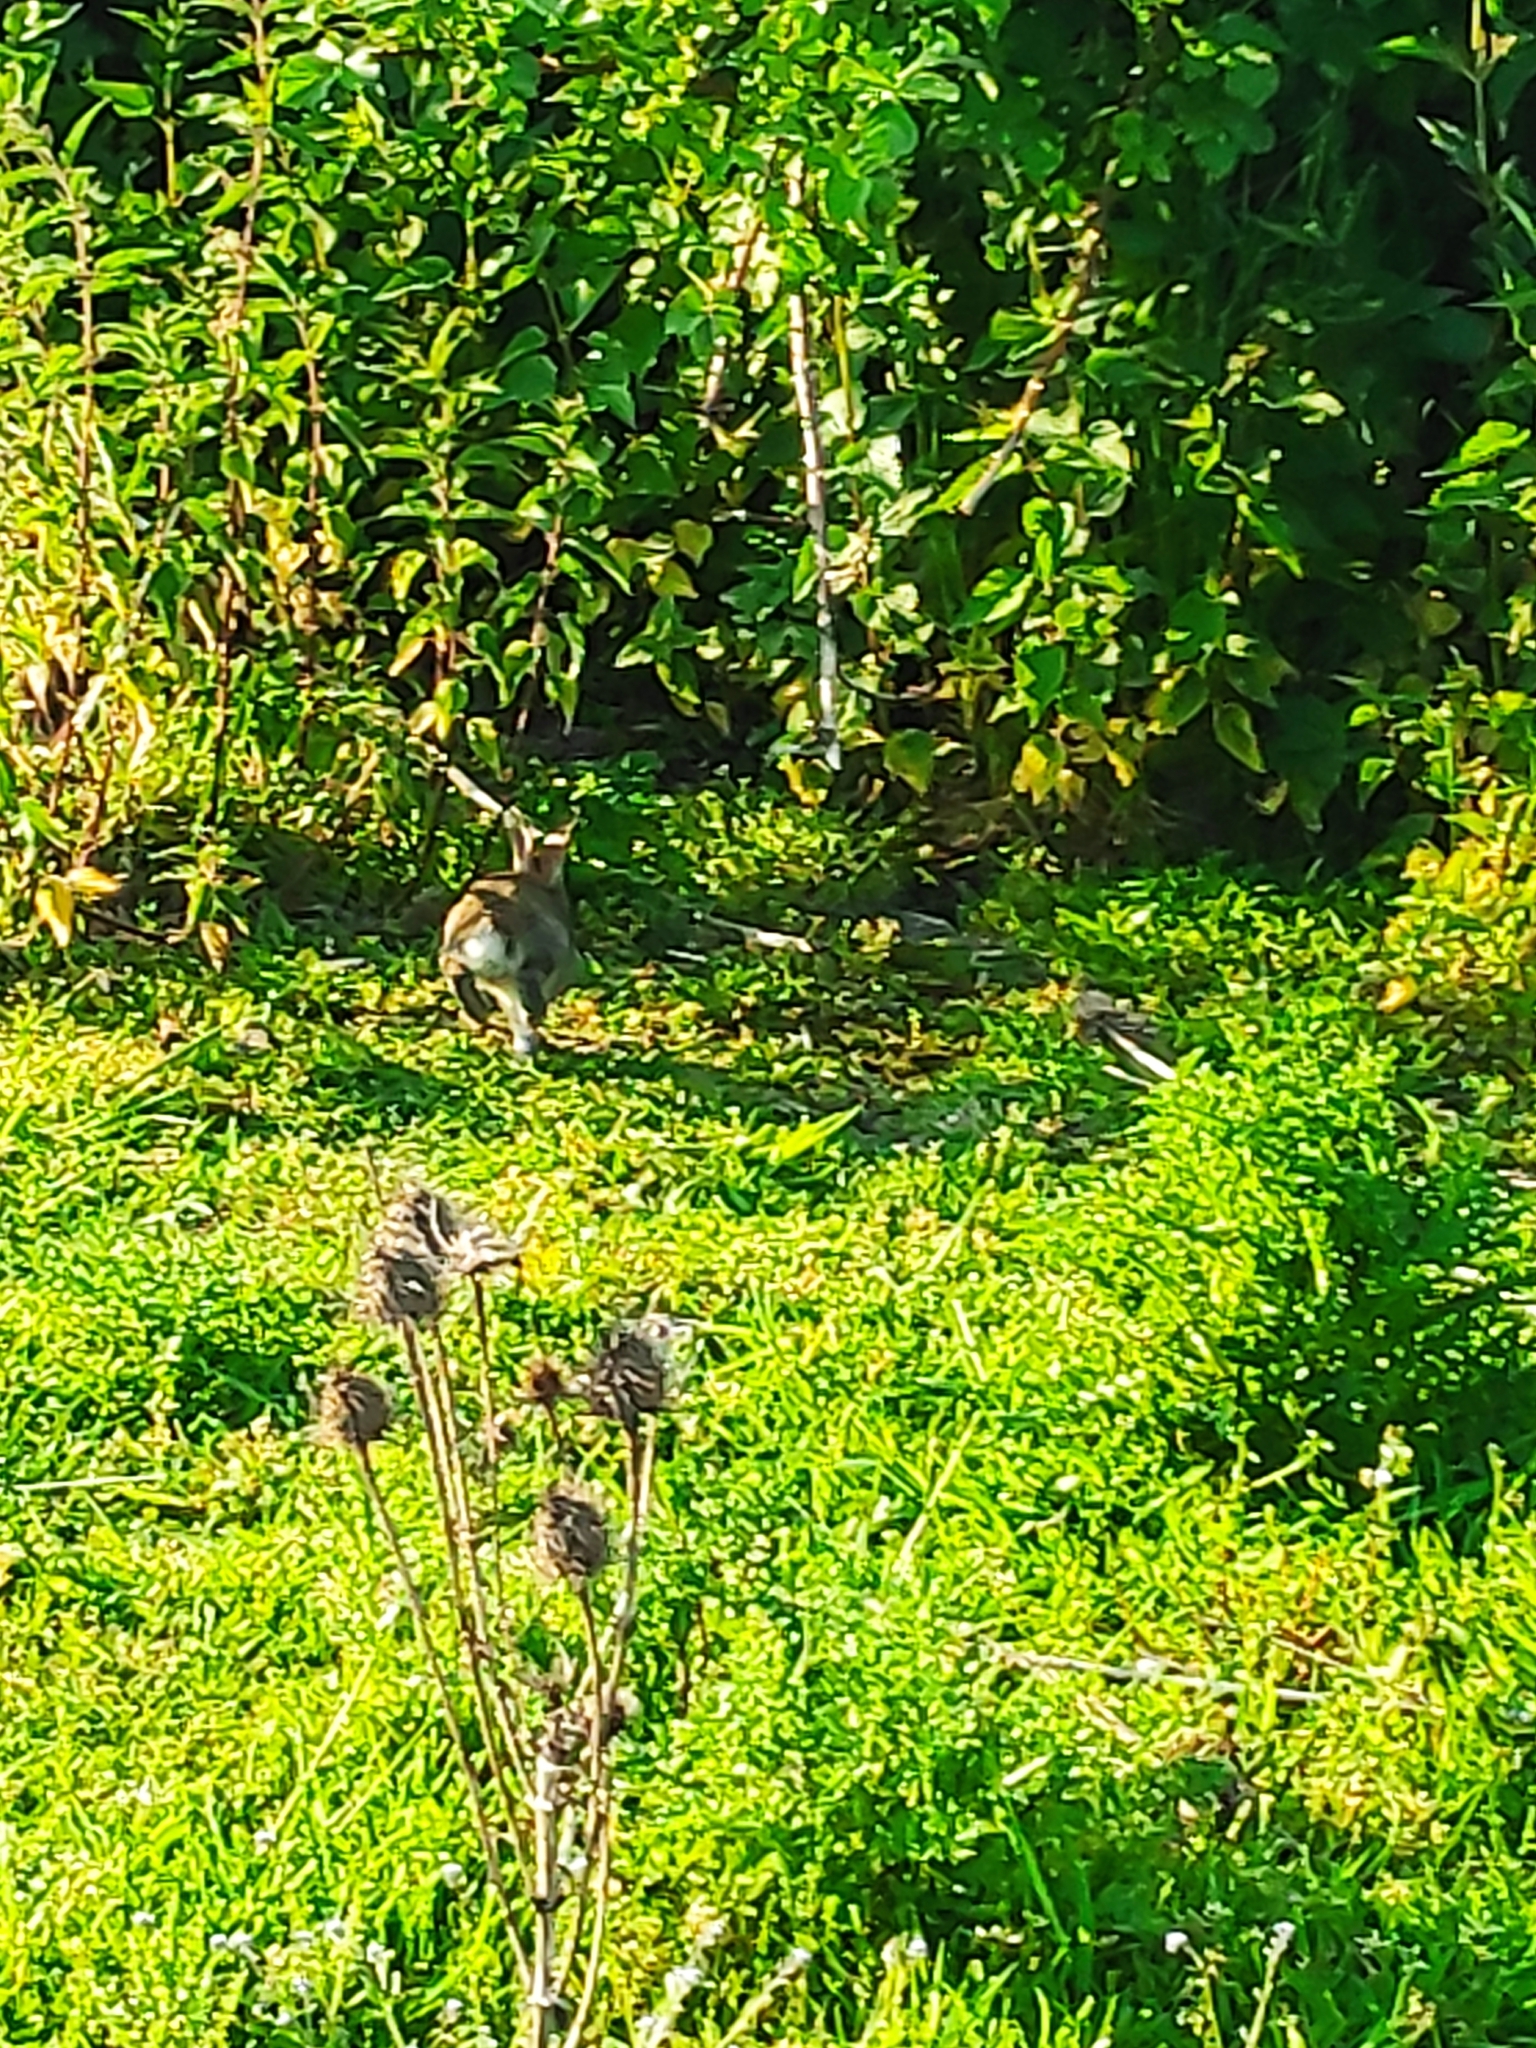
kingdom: Animalia
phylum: Chordata
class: Mammalia
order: Lagomorpha
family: Leporidae
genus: Oryctolagus
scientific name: Oryctolagus cuniculus
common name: European rabbit
